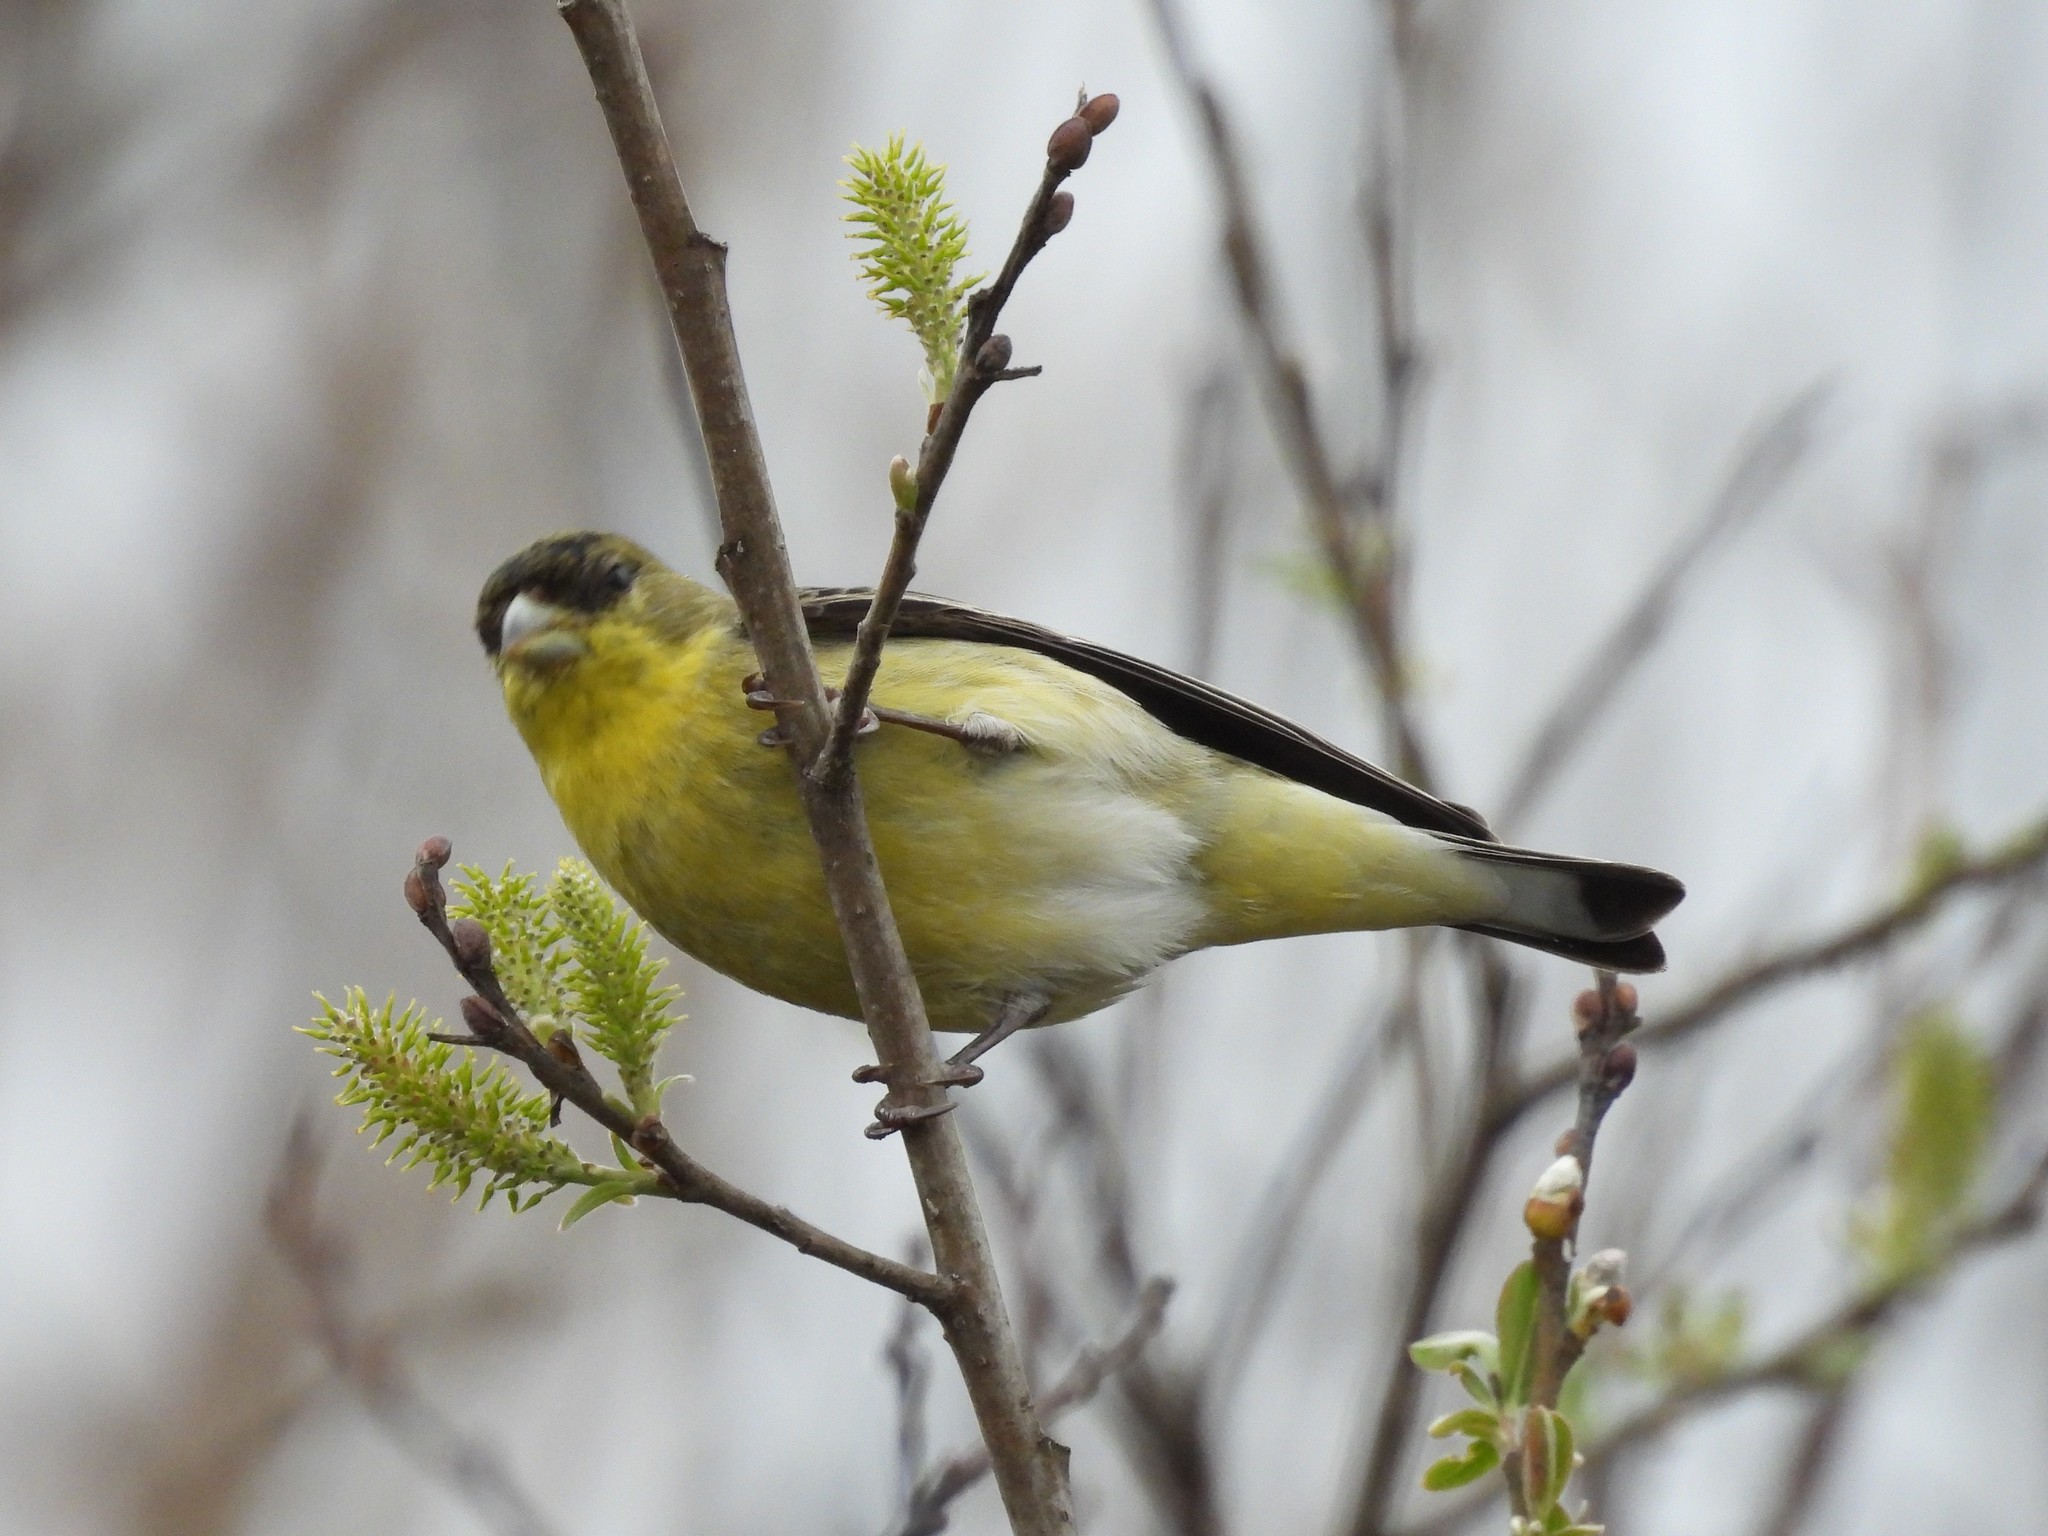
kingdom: Animalia
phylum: Chordata
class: Aves
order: Passeriformes
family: Fringillidae
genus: Spinus
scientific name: Spinus psaltria
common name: Lesser goldfinch
